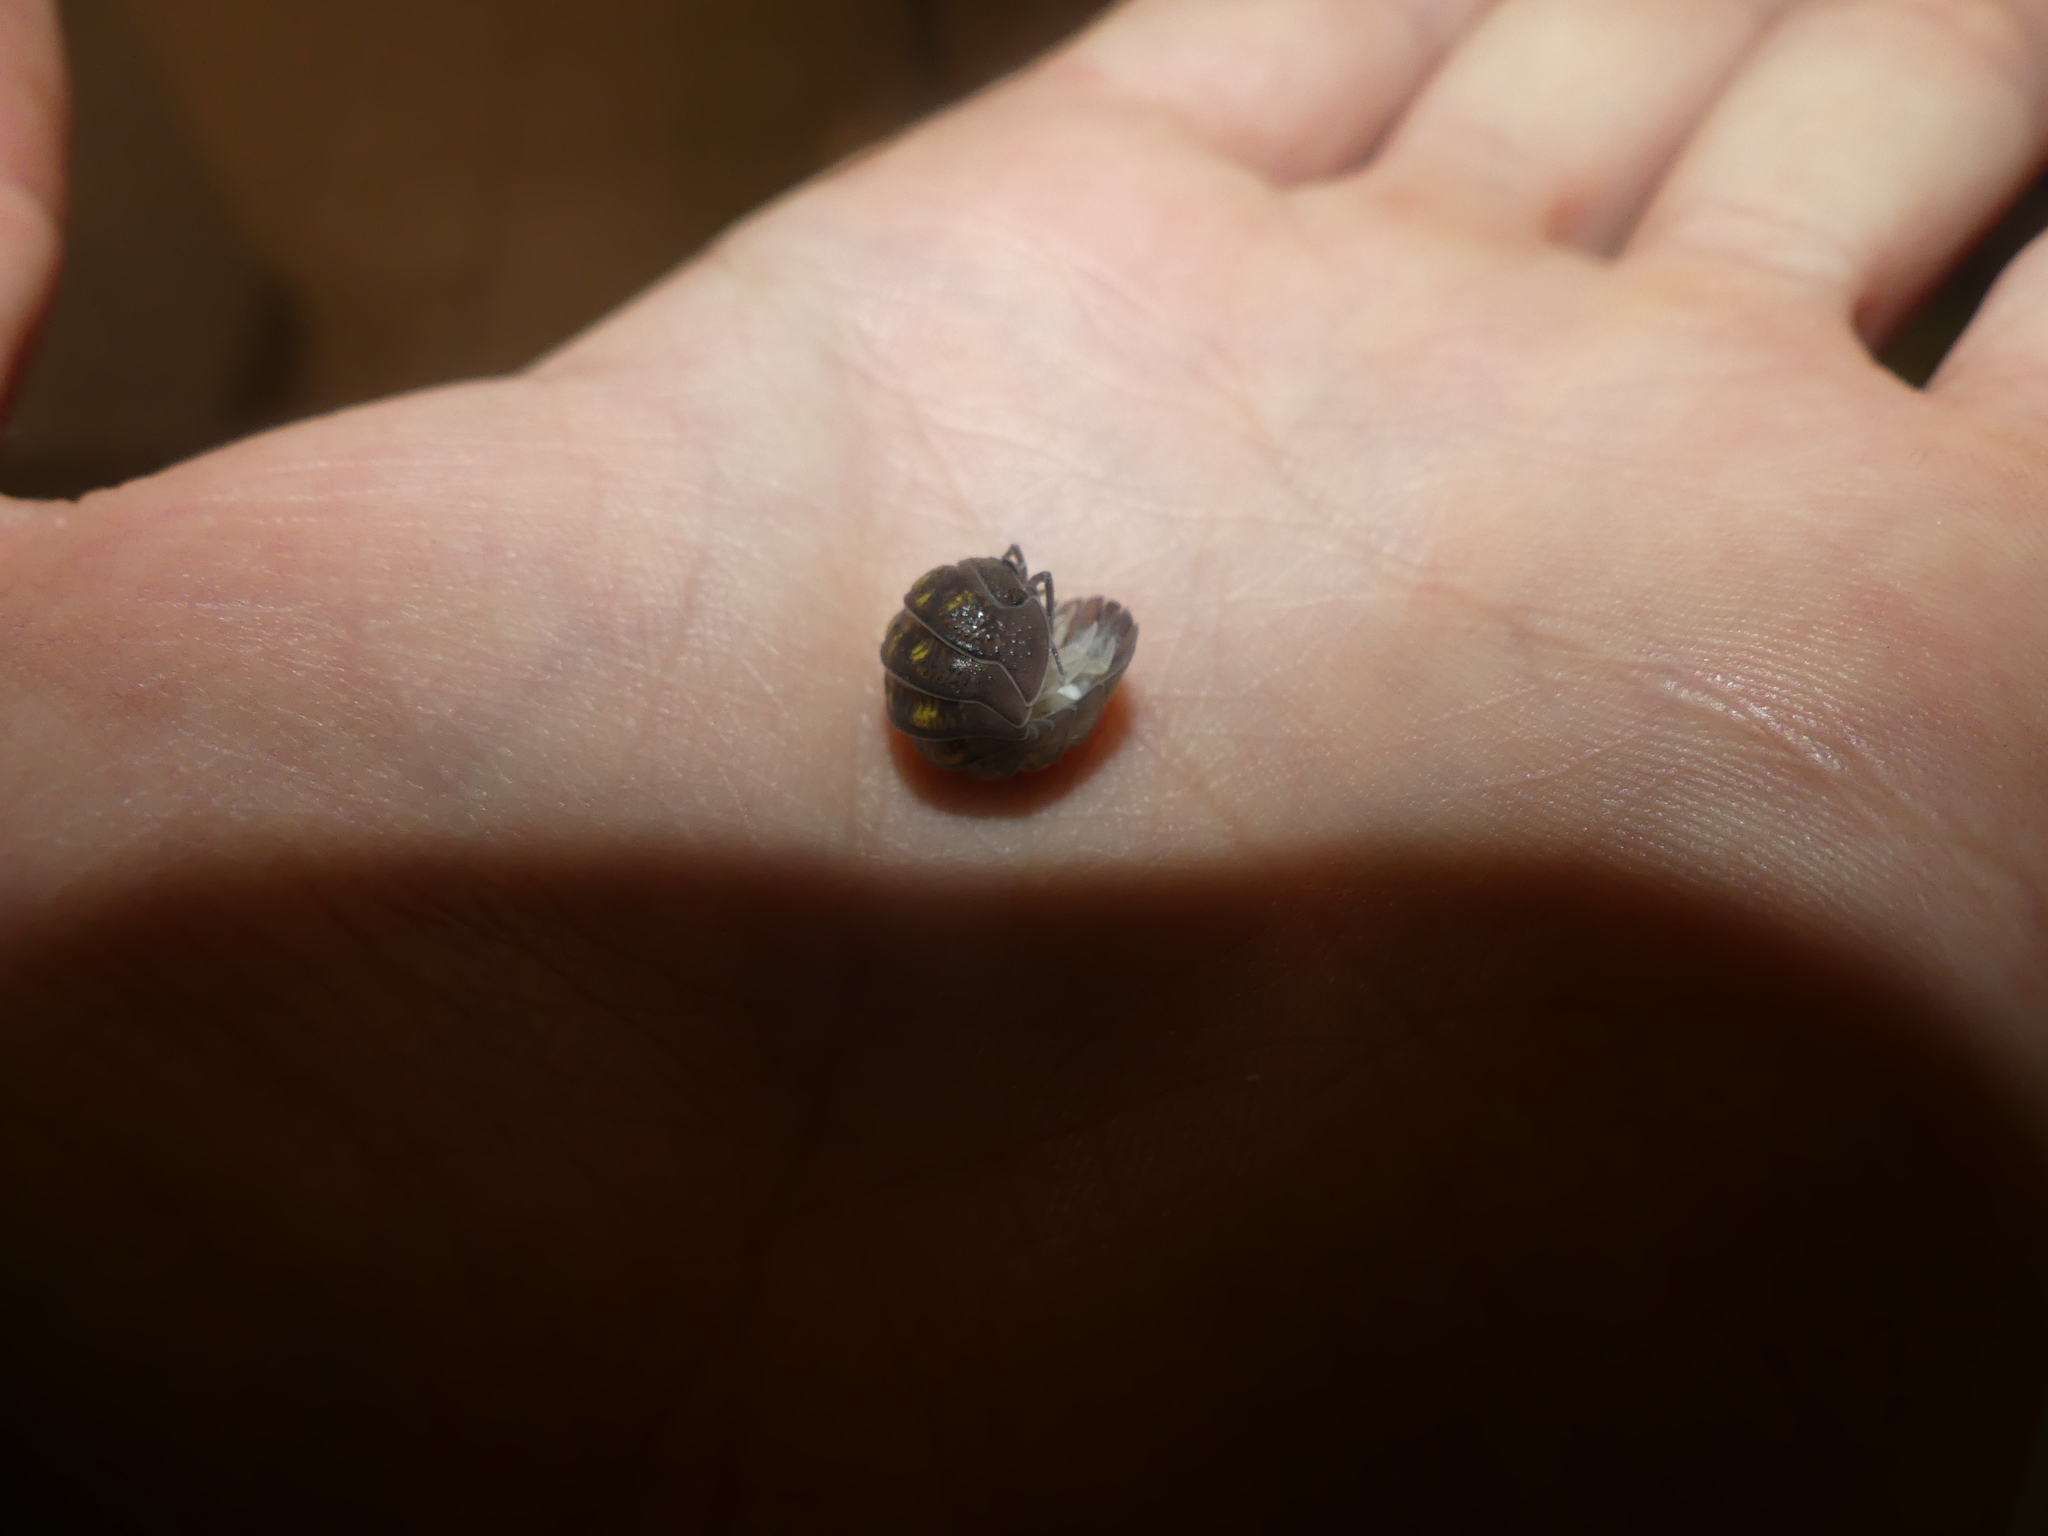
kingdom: Animalia
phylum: Arthropoda
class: Malacostraca
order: Isopoda
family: Armadillidiidae
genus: Armadillidium
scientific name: Armadillidium granulatum
